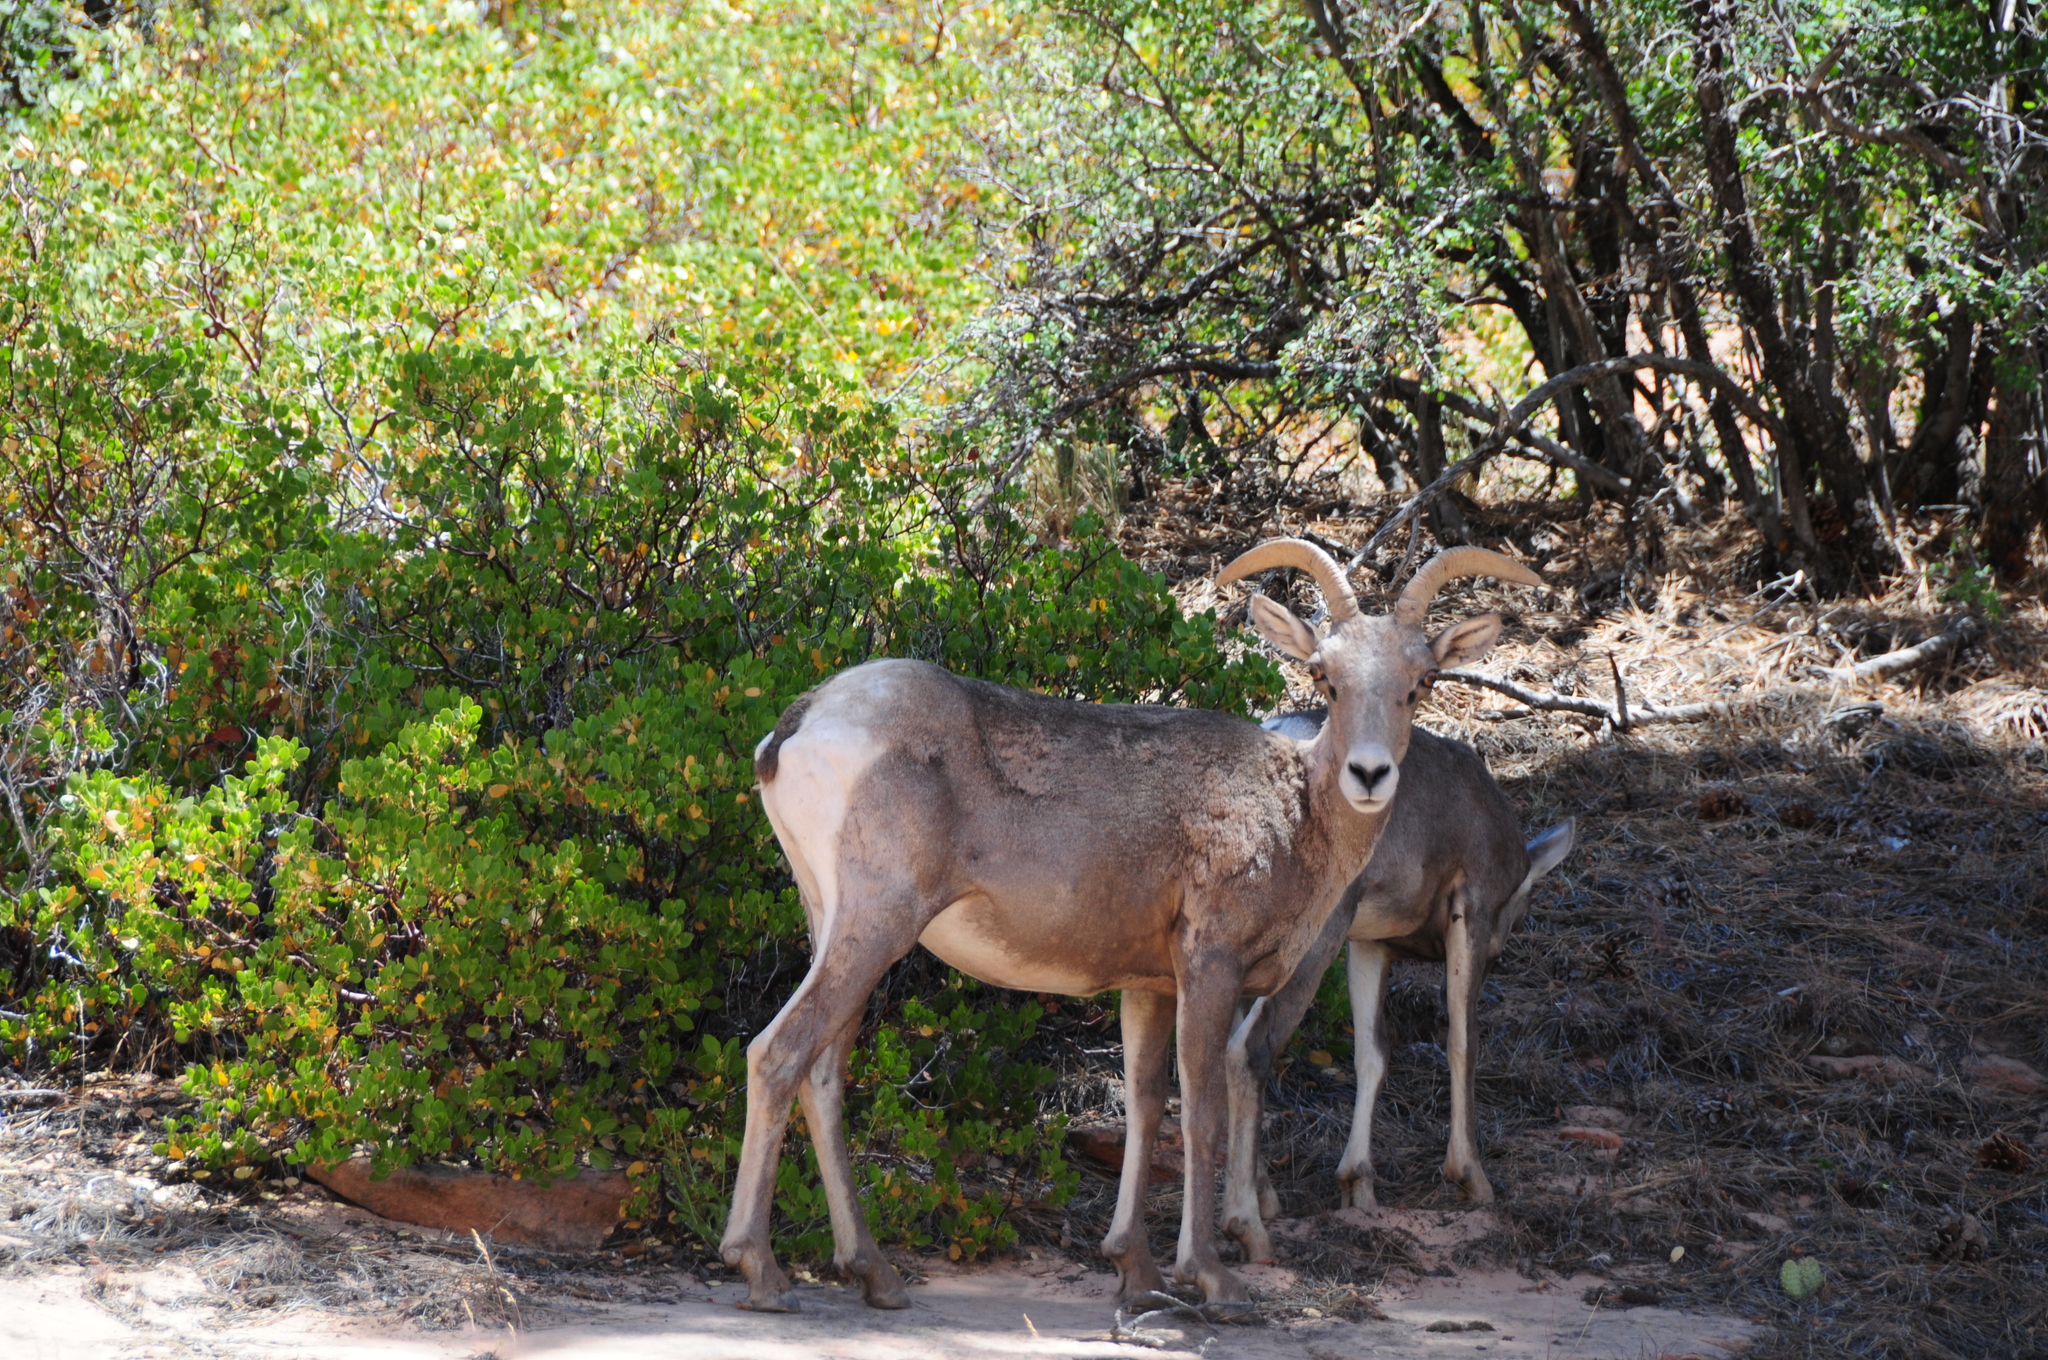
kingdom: Animalia
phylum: Chordata
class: Mammalia
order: Artiodactyla
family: Bovidae
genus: Ovis
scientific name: Ovis canadensis
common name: Bighorn sheep
